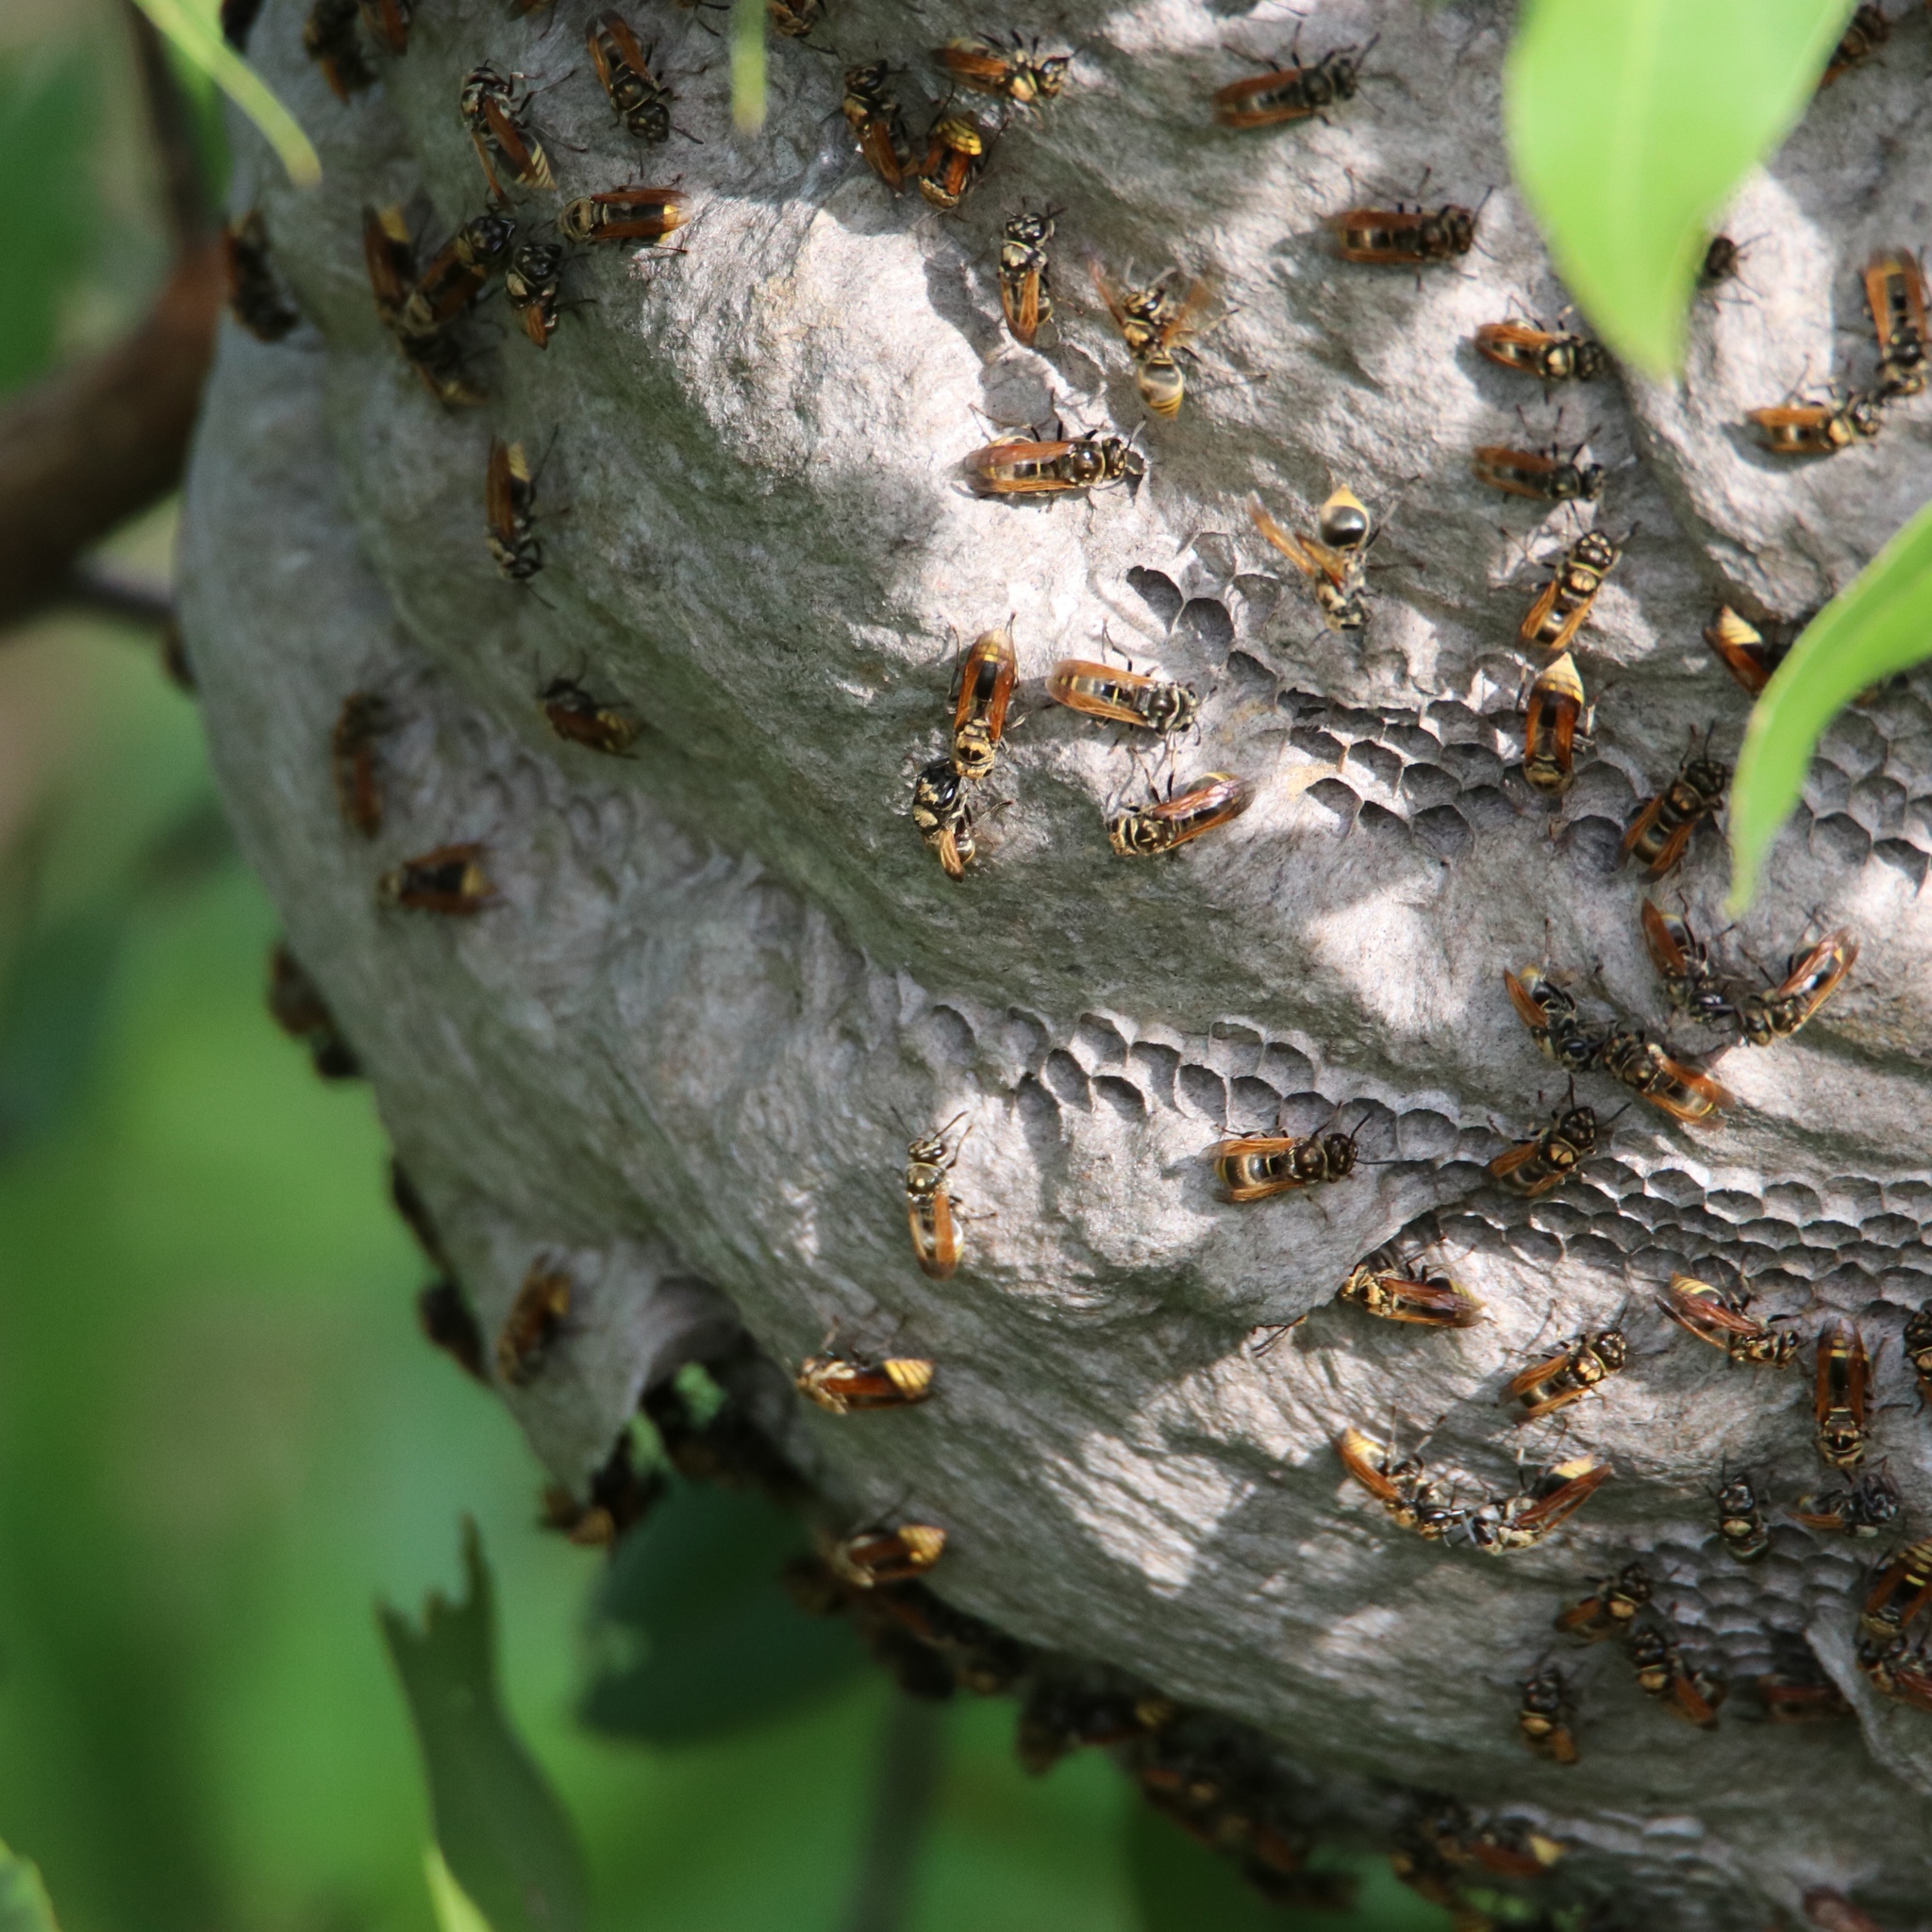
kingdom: Animalia
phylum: Arthropoda
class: Insecta
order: Hymenoptera
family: Vespidae
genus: Brachygastra
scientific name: Brachygastra lecheguana
